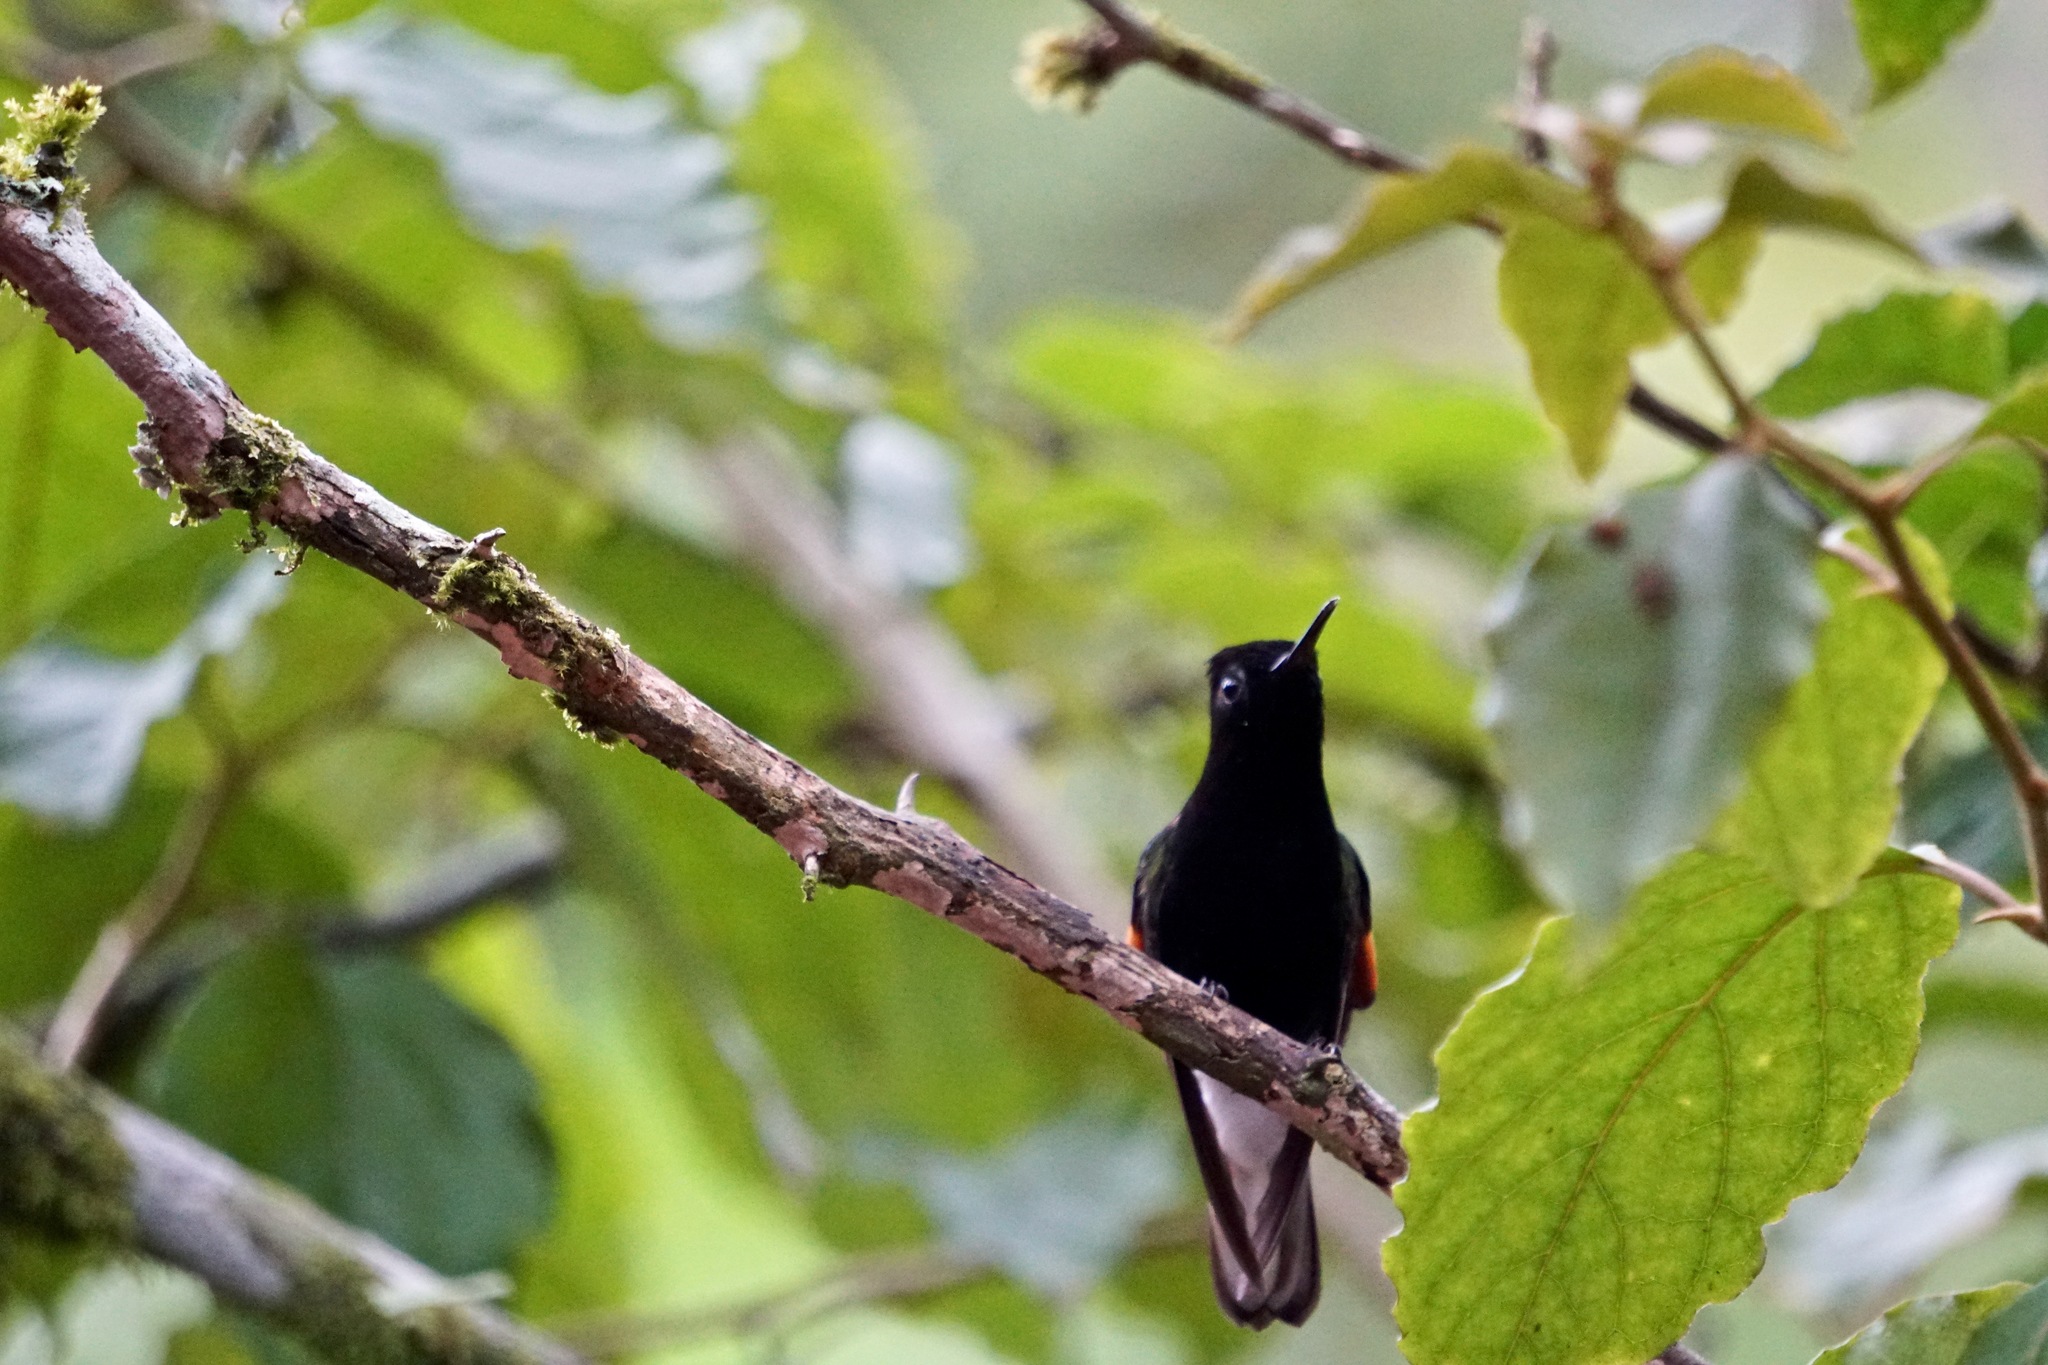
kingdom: Animalia
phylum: Chordata
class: Aves
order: Apodiformes
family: Trochilidae
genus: Eupherusa
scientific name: Eupherusa nigriventris
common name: Black-bellied hummingbird
